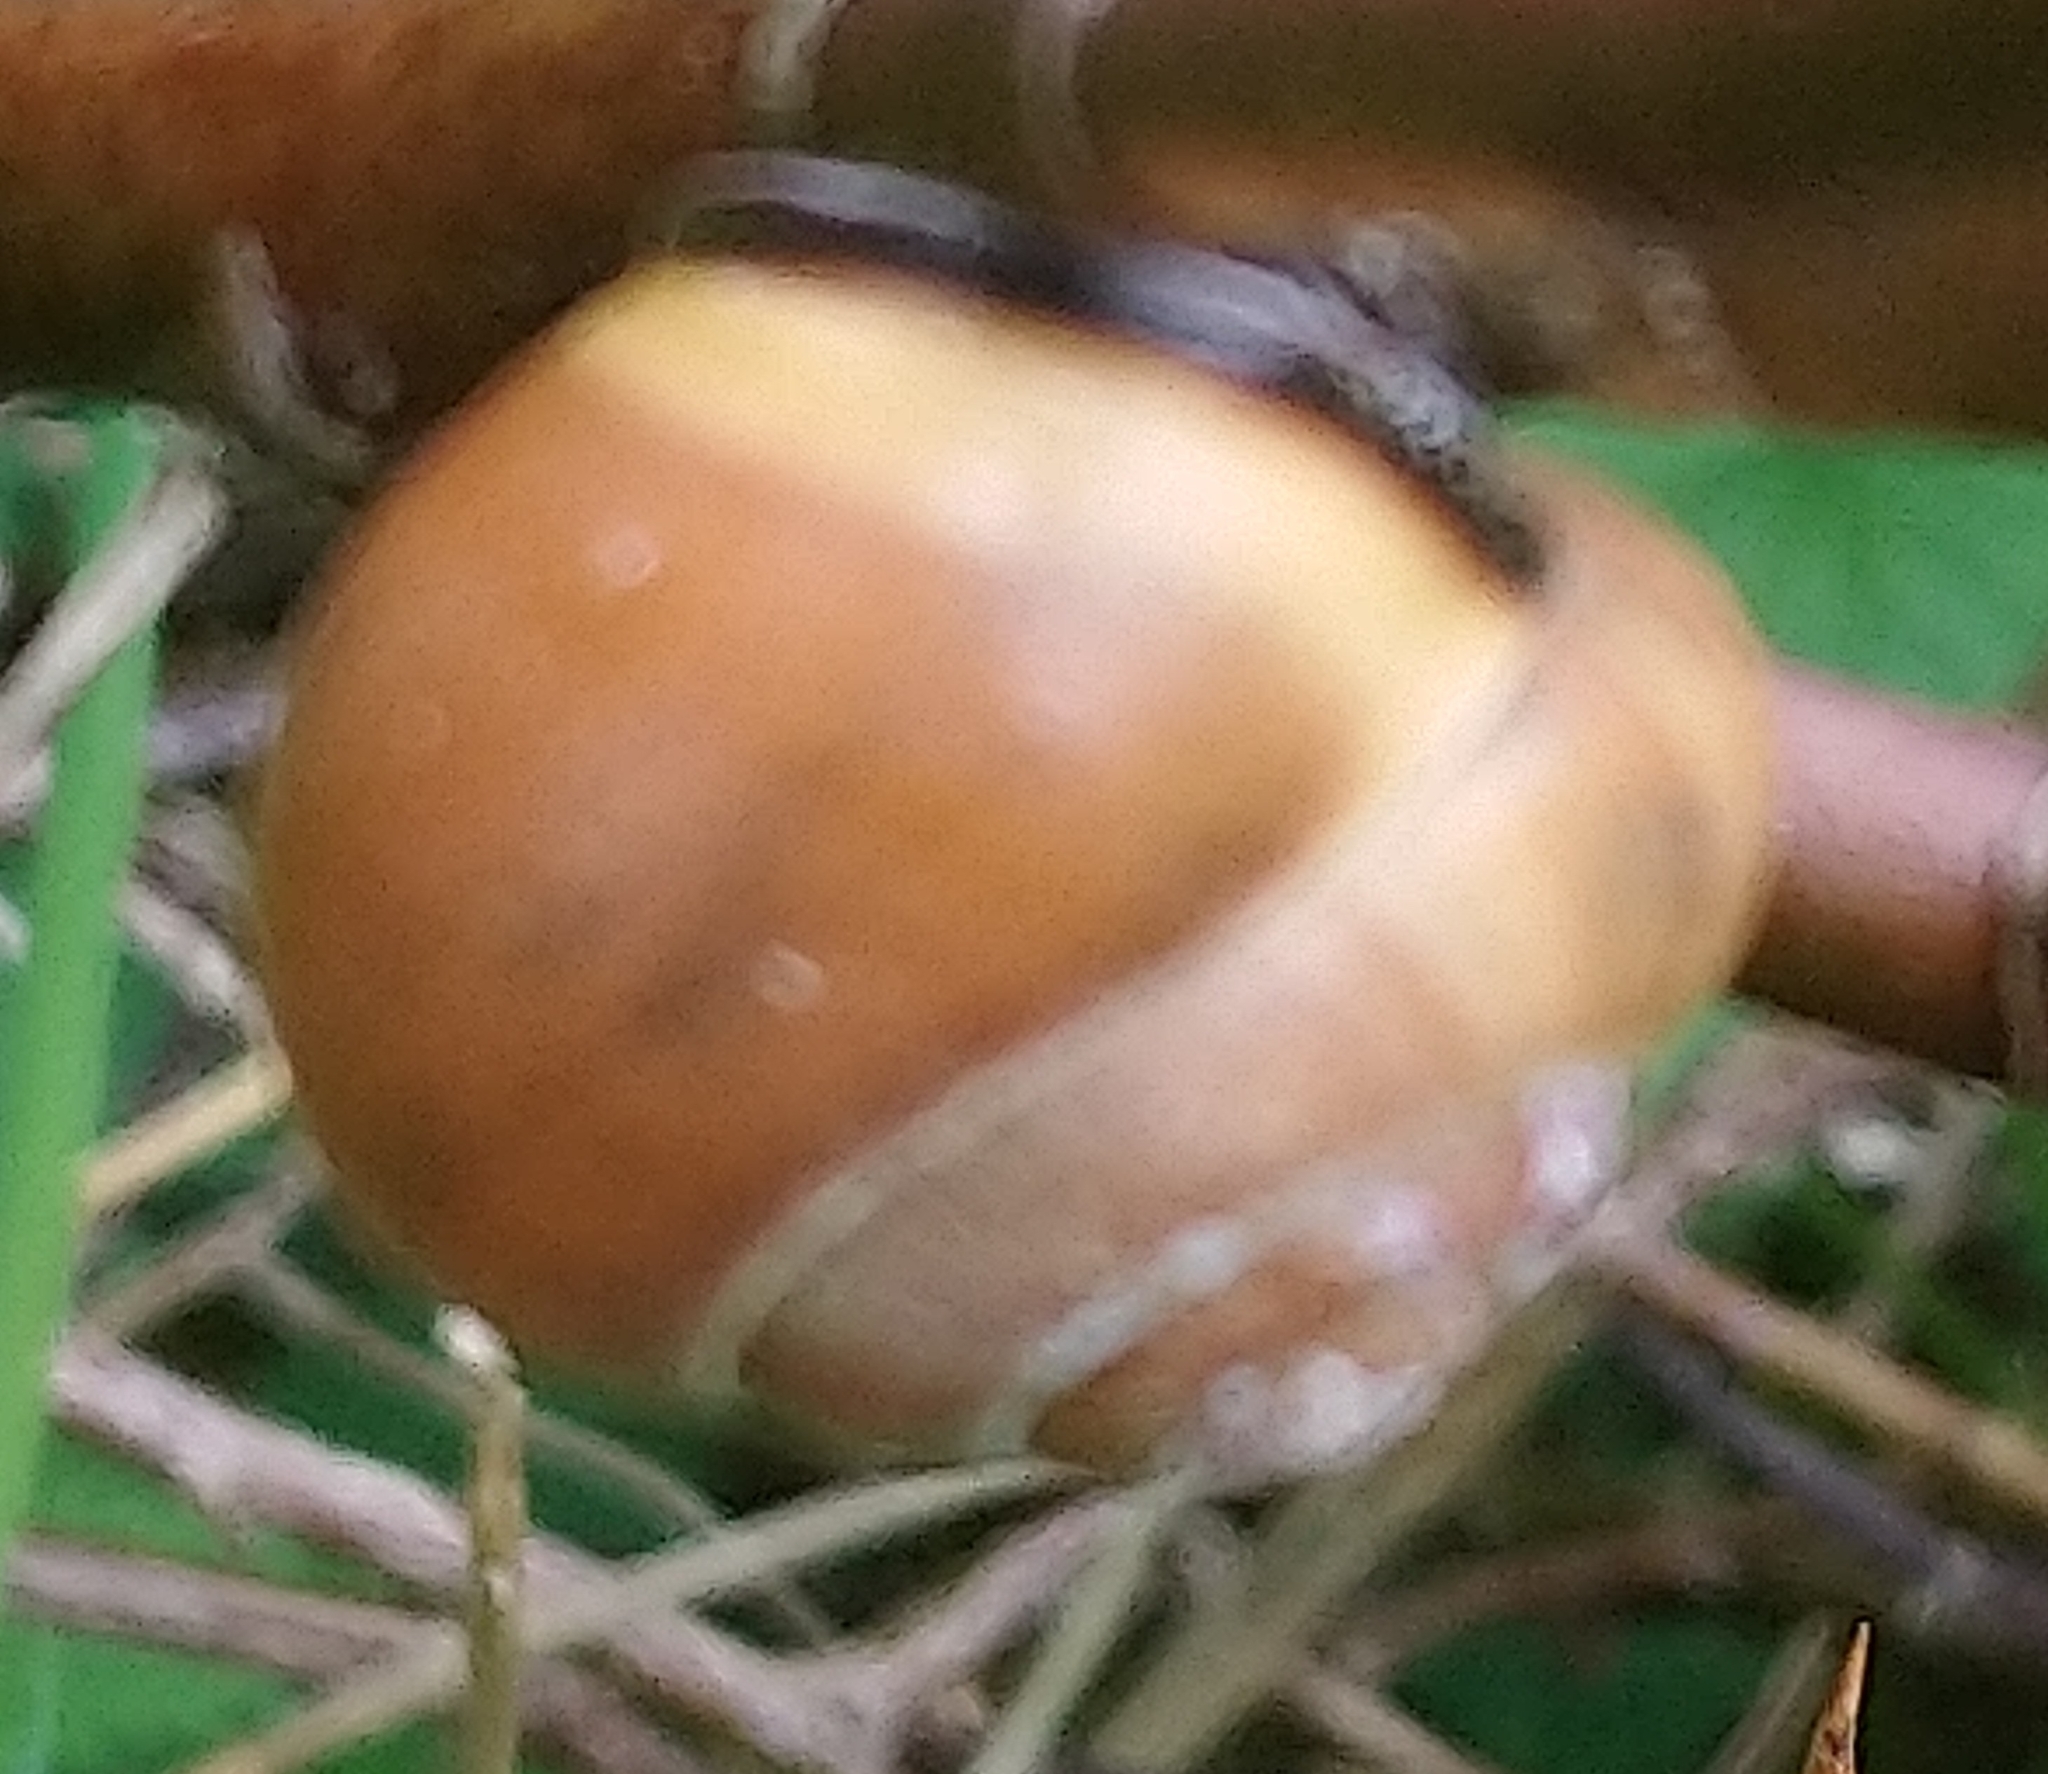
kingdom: Animalia
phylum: Mollusca
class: Gastropoda
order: Stylommatophora
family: Helicidae
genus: Cepaea
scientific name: Cepaea nemoralis
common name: Grovesnail
